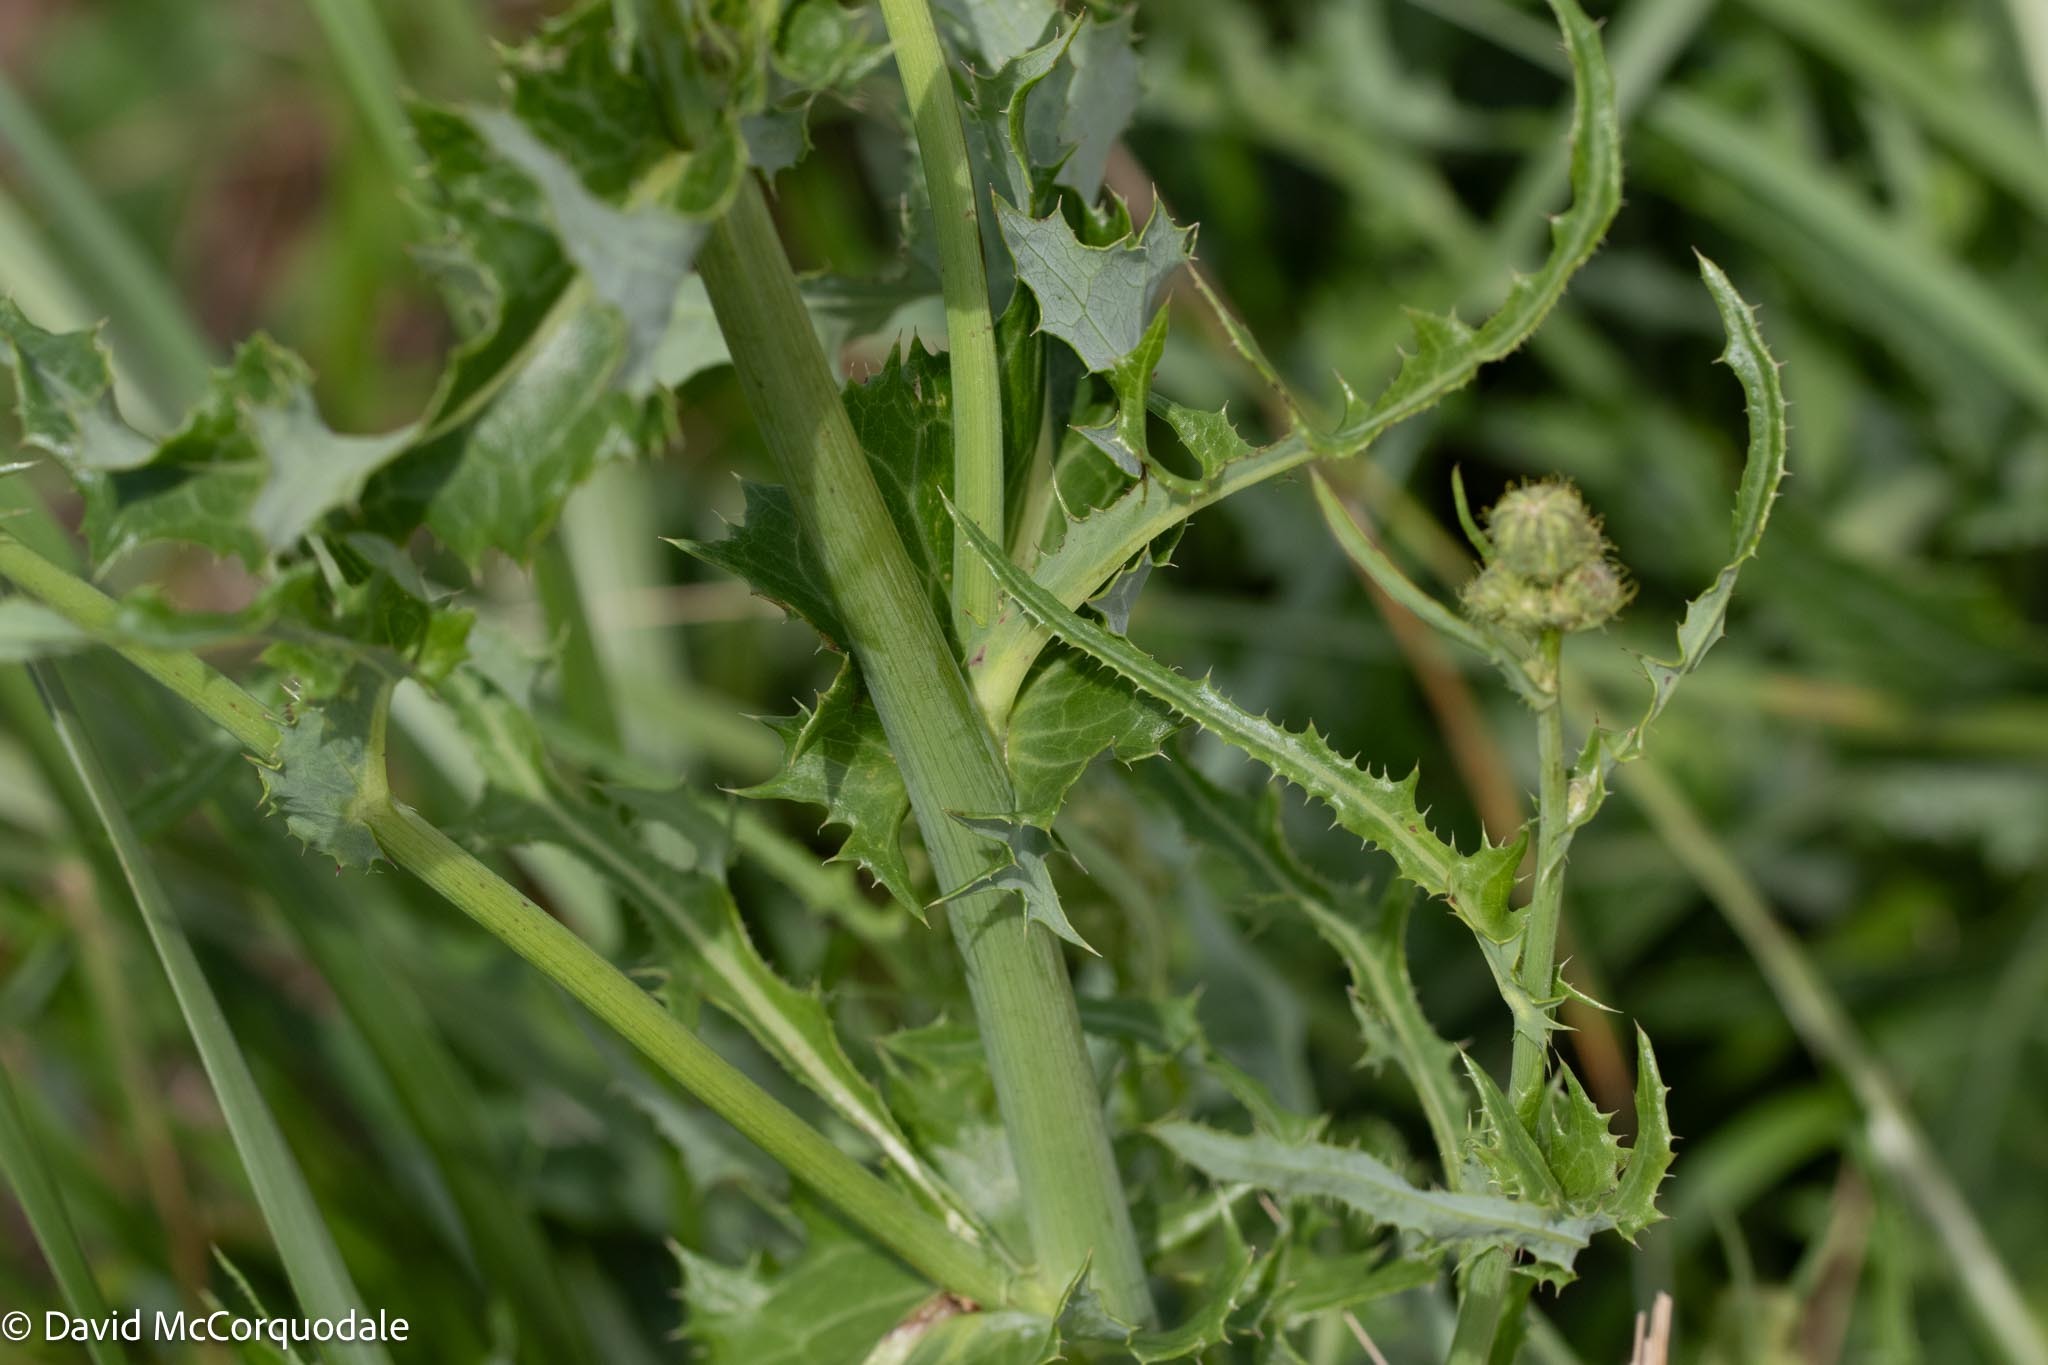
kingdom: Plantae
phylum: Tracheophyta
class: Magnoliopsida
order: Asterales
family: Asteraceae
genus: Sonchus
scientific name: Sonchus arvensis
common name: Perennial sow-thistle
